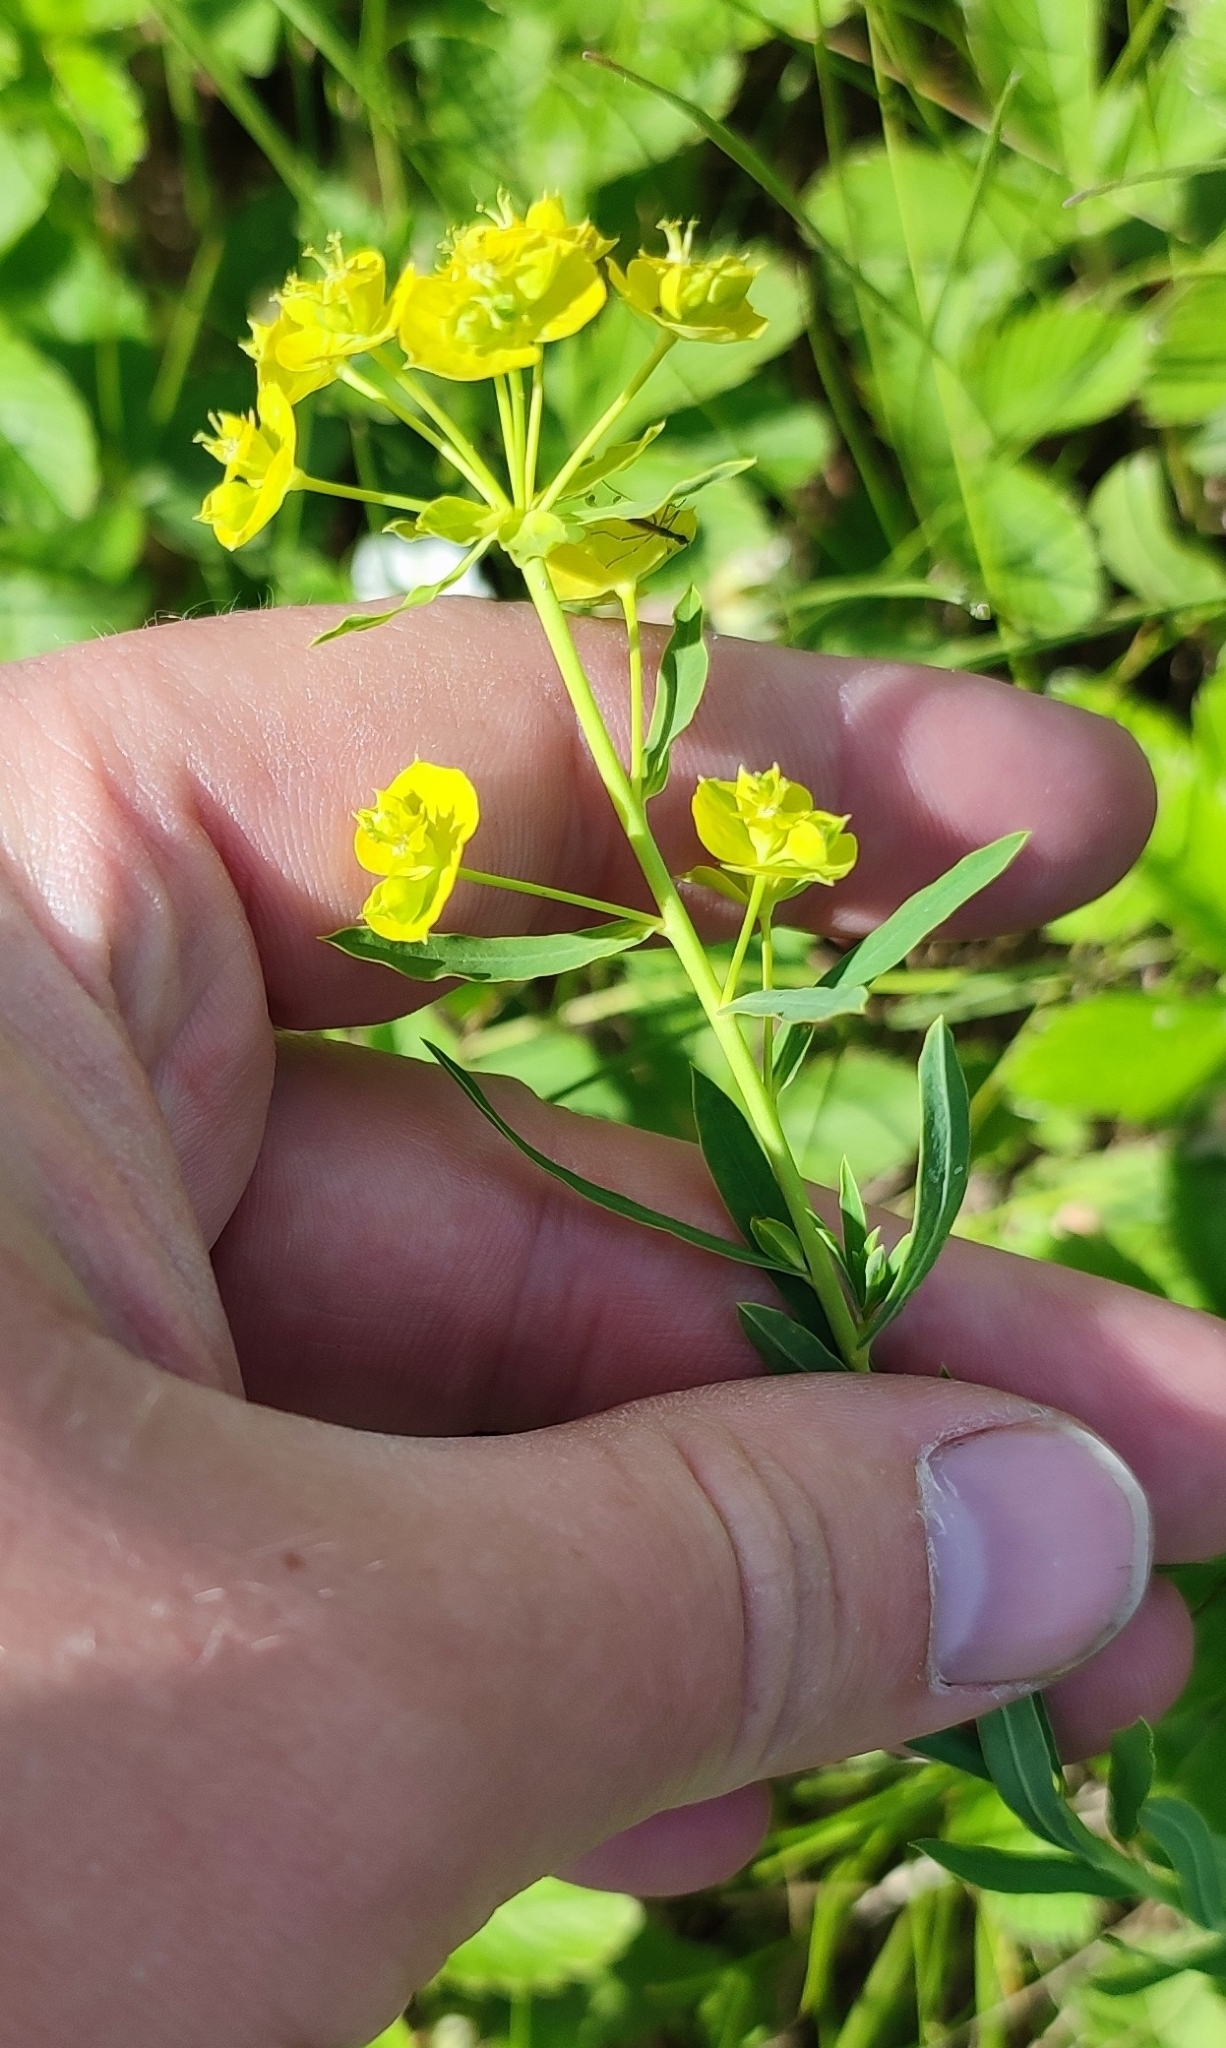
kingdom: Plantae
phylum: Tracheophyta
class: Magnoliopsida
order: Malpighiales
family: Euphorbiaceae
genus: Euphorbia
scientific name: Euphorbia virgata
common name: Leafy spurge
